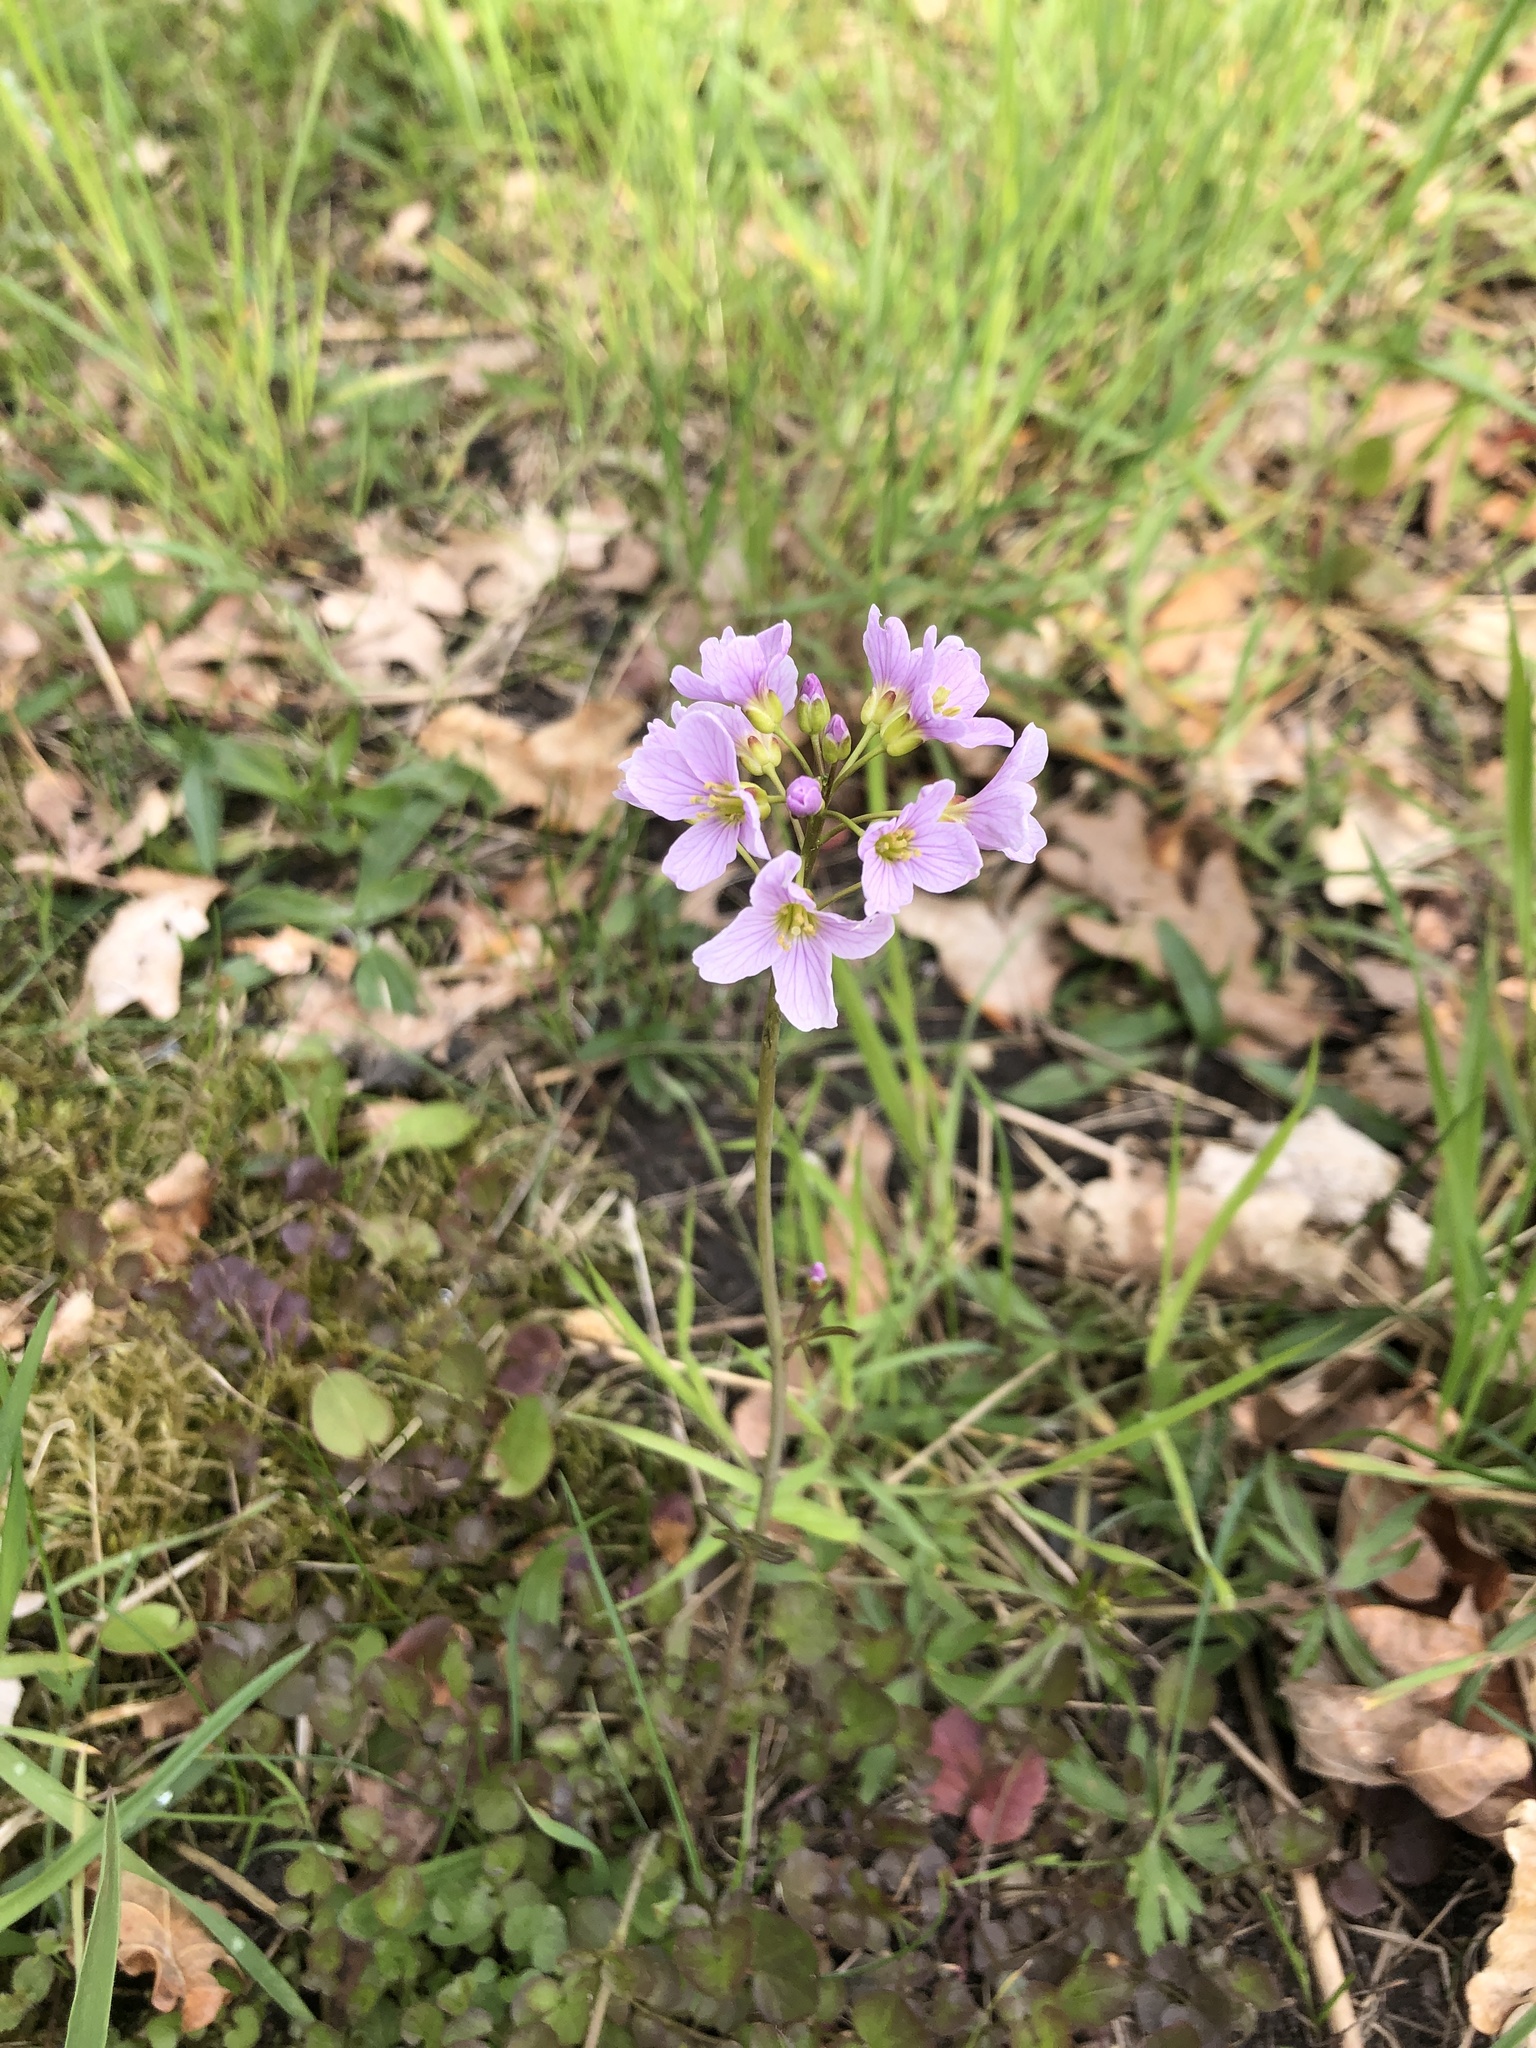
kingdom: Plantae
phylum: Tracheophyta
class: Magnoliopsida
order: Brassicales
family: Brassicaceae
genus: Cardamine
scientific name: Cardamine pratensis
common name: Cuckoo flower
